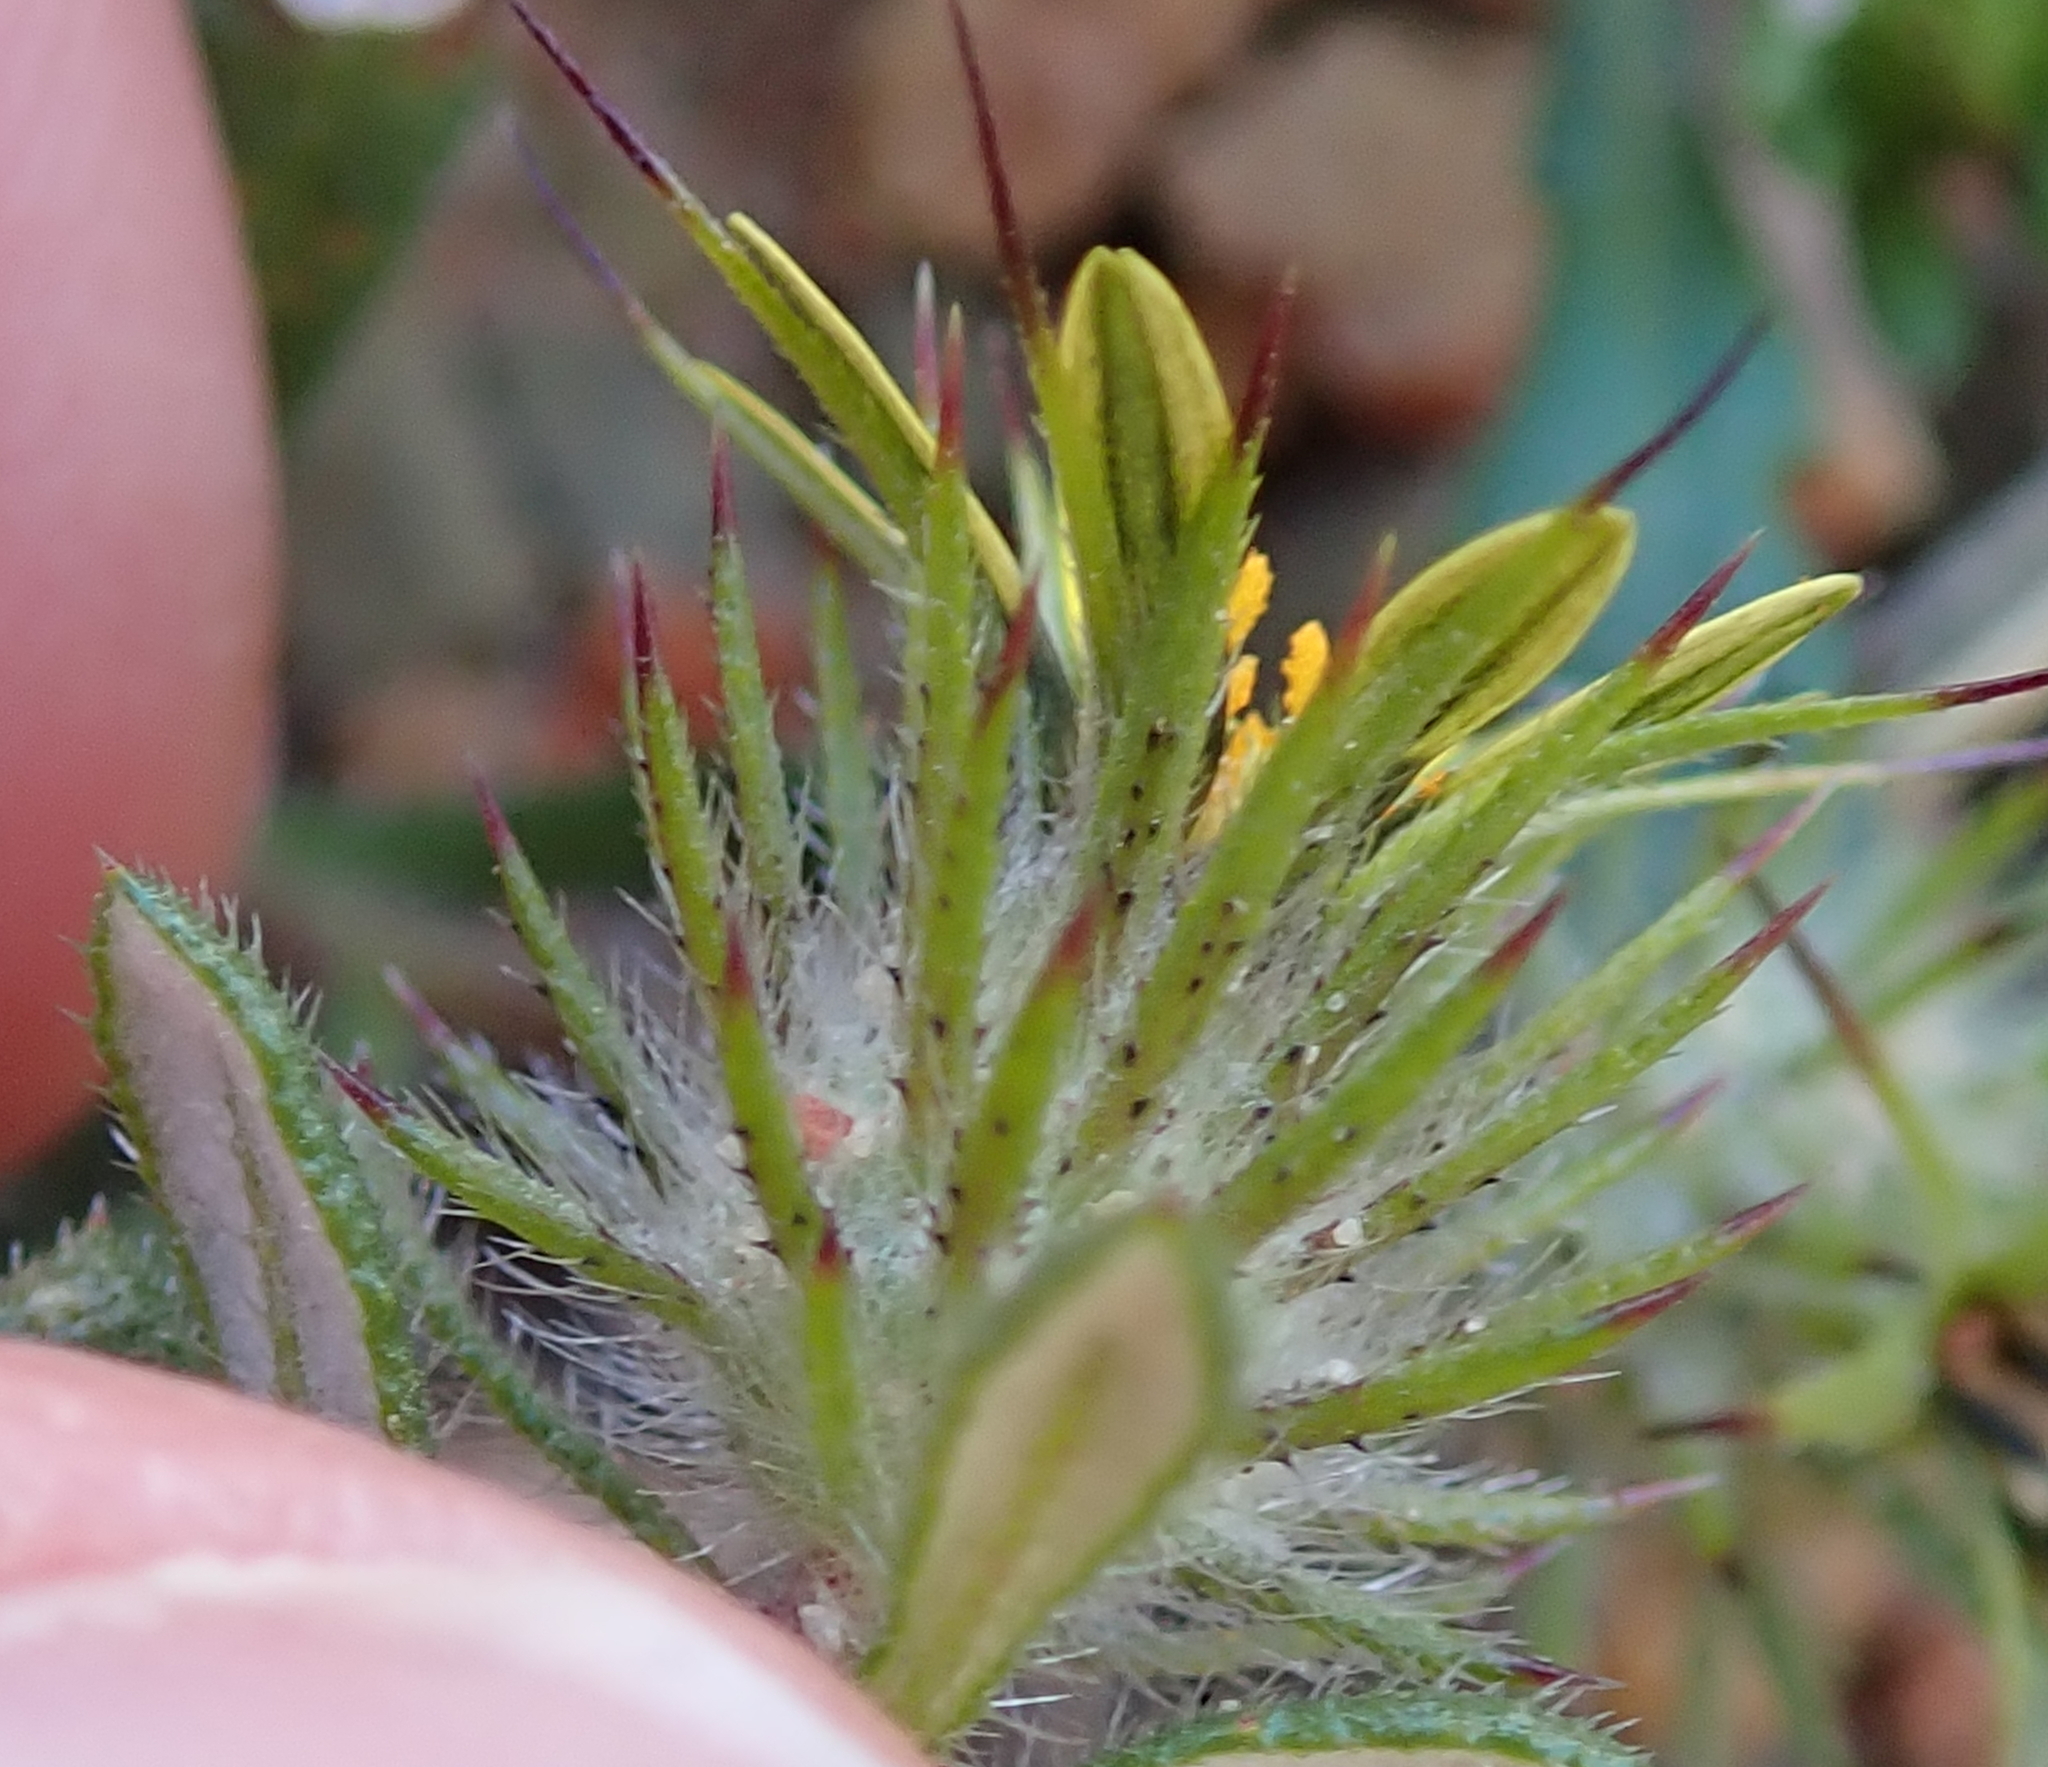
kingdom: Plantae
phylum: Tracheophyta
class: Magnoliopsida
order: Asterales
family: Asteraceae
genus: Gorteria
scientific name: Gorteria personata
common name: Gorteria
